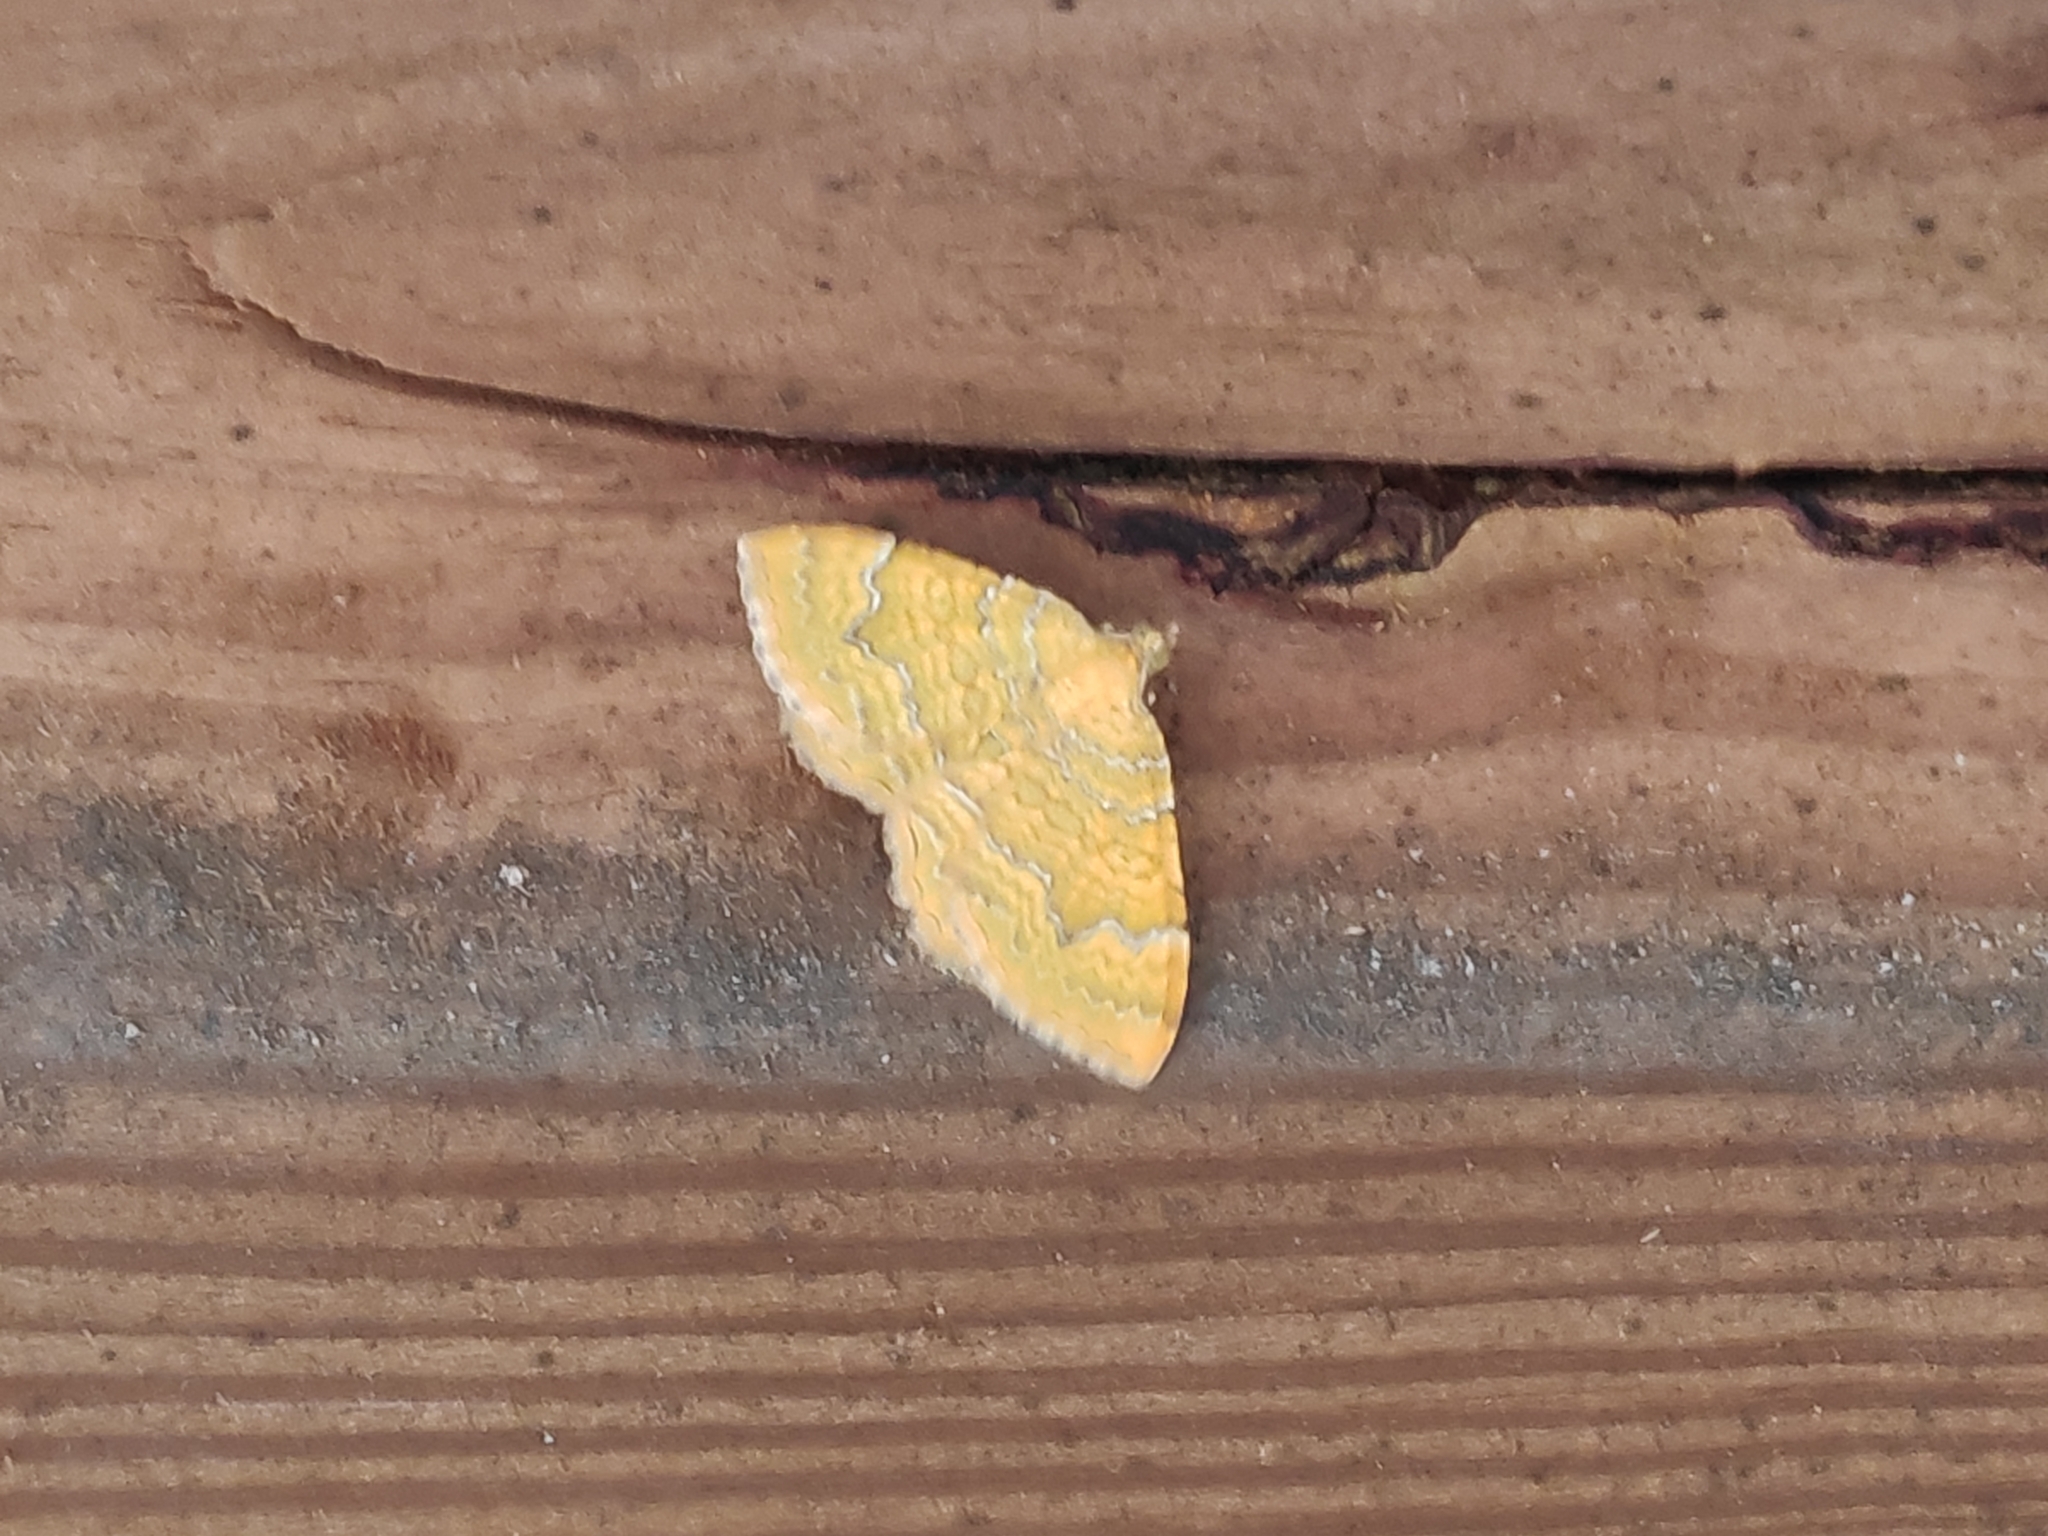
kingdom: Animalia
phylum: Arthropoda
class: Insecta
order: Lepidoptera
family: Geometridae
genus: Camptogramma
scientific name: Camptogramma bilineata
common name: Yellow shell
